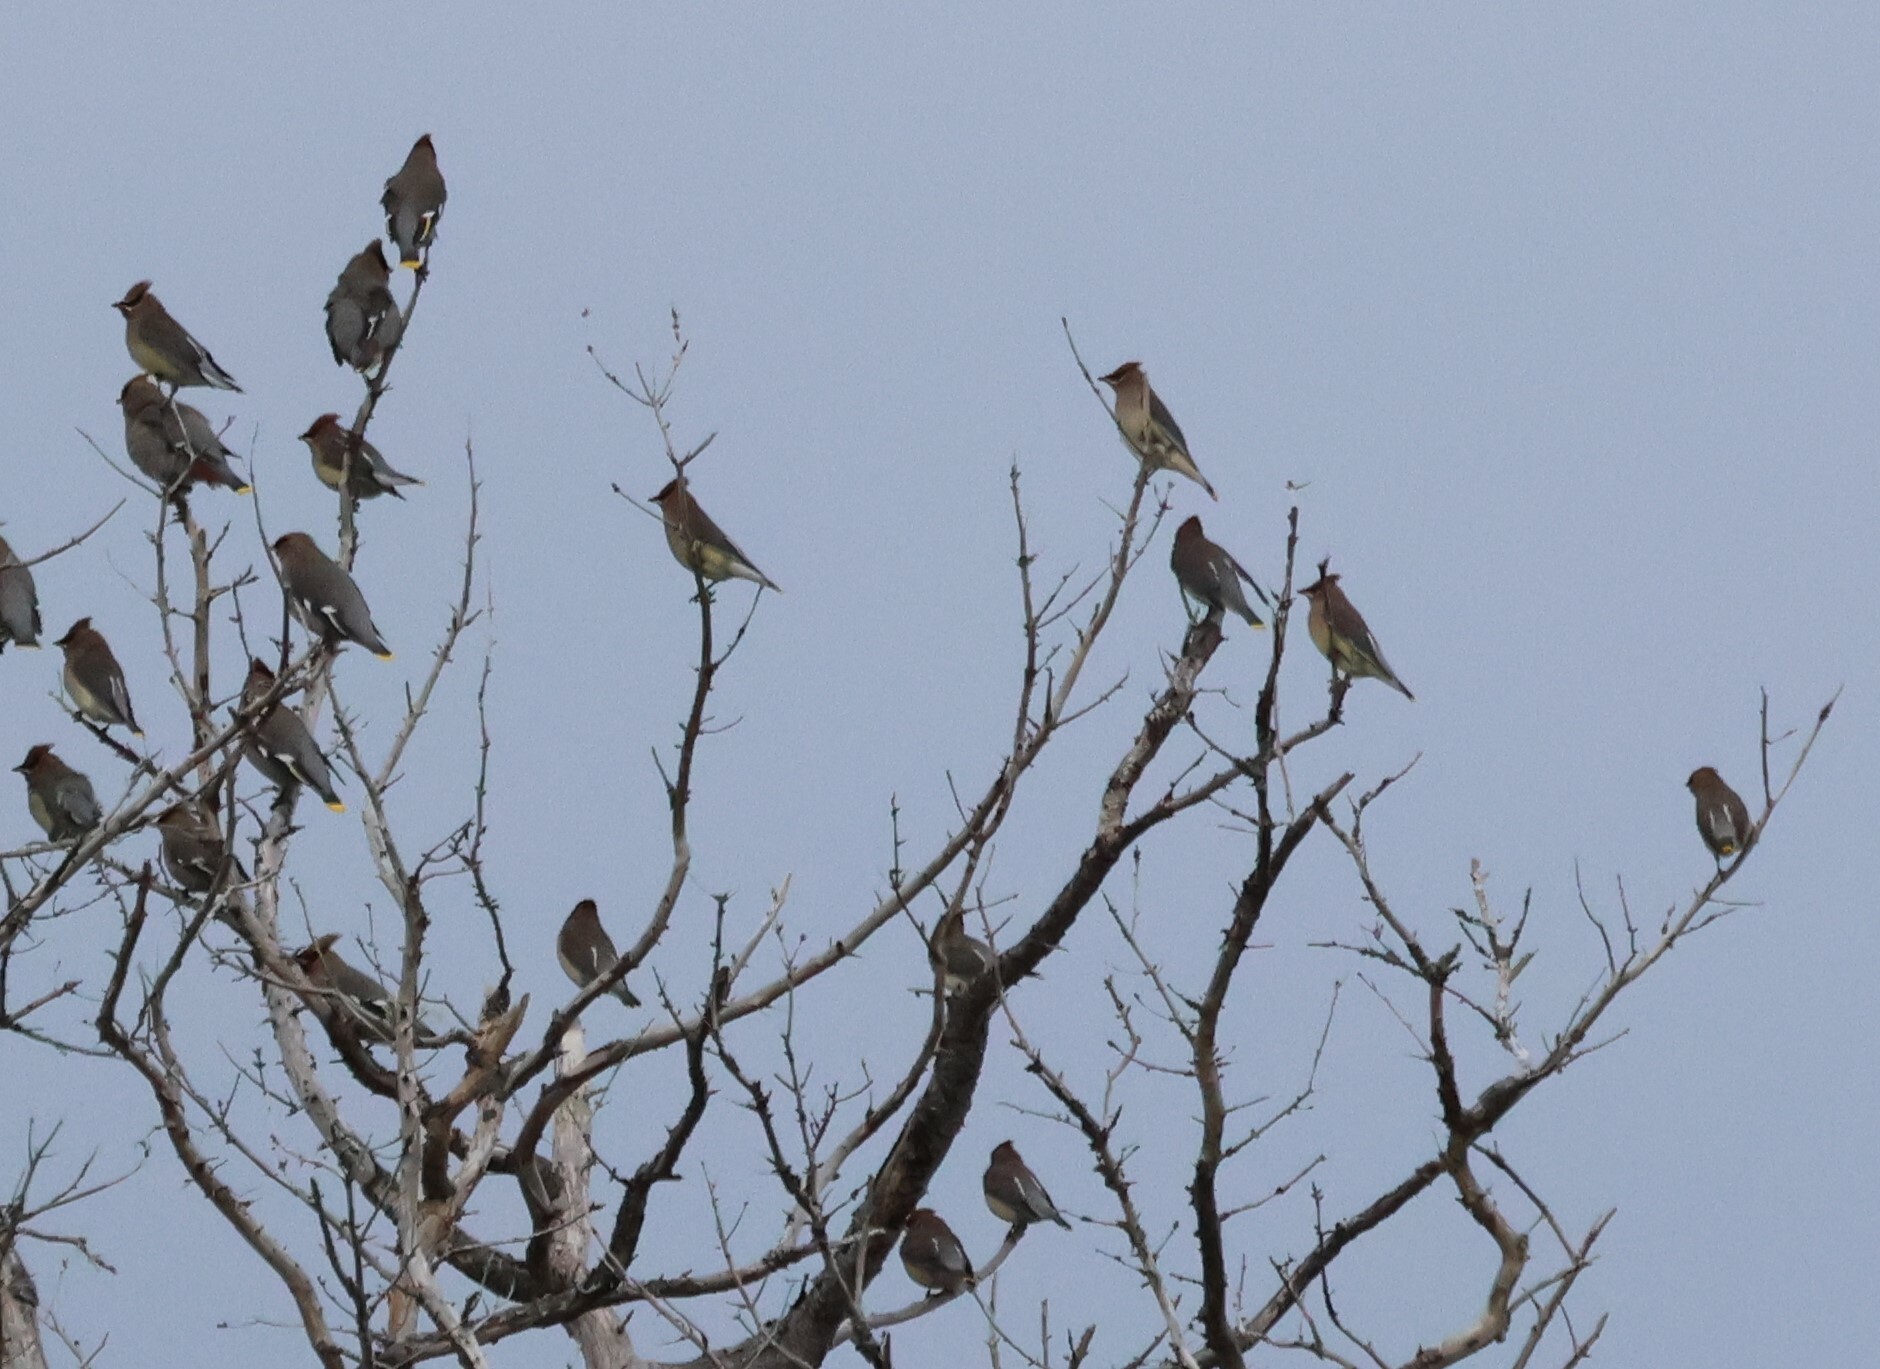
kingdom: Animalia
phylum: Chordata
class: Aves
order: Passeriformes
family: Bombycillidae
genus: Bombycilla
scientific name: Bombycilla cedrorum
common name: Cedar waxwing
